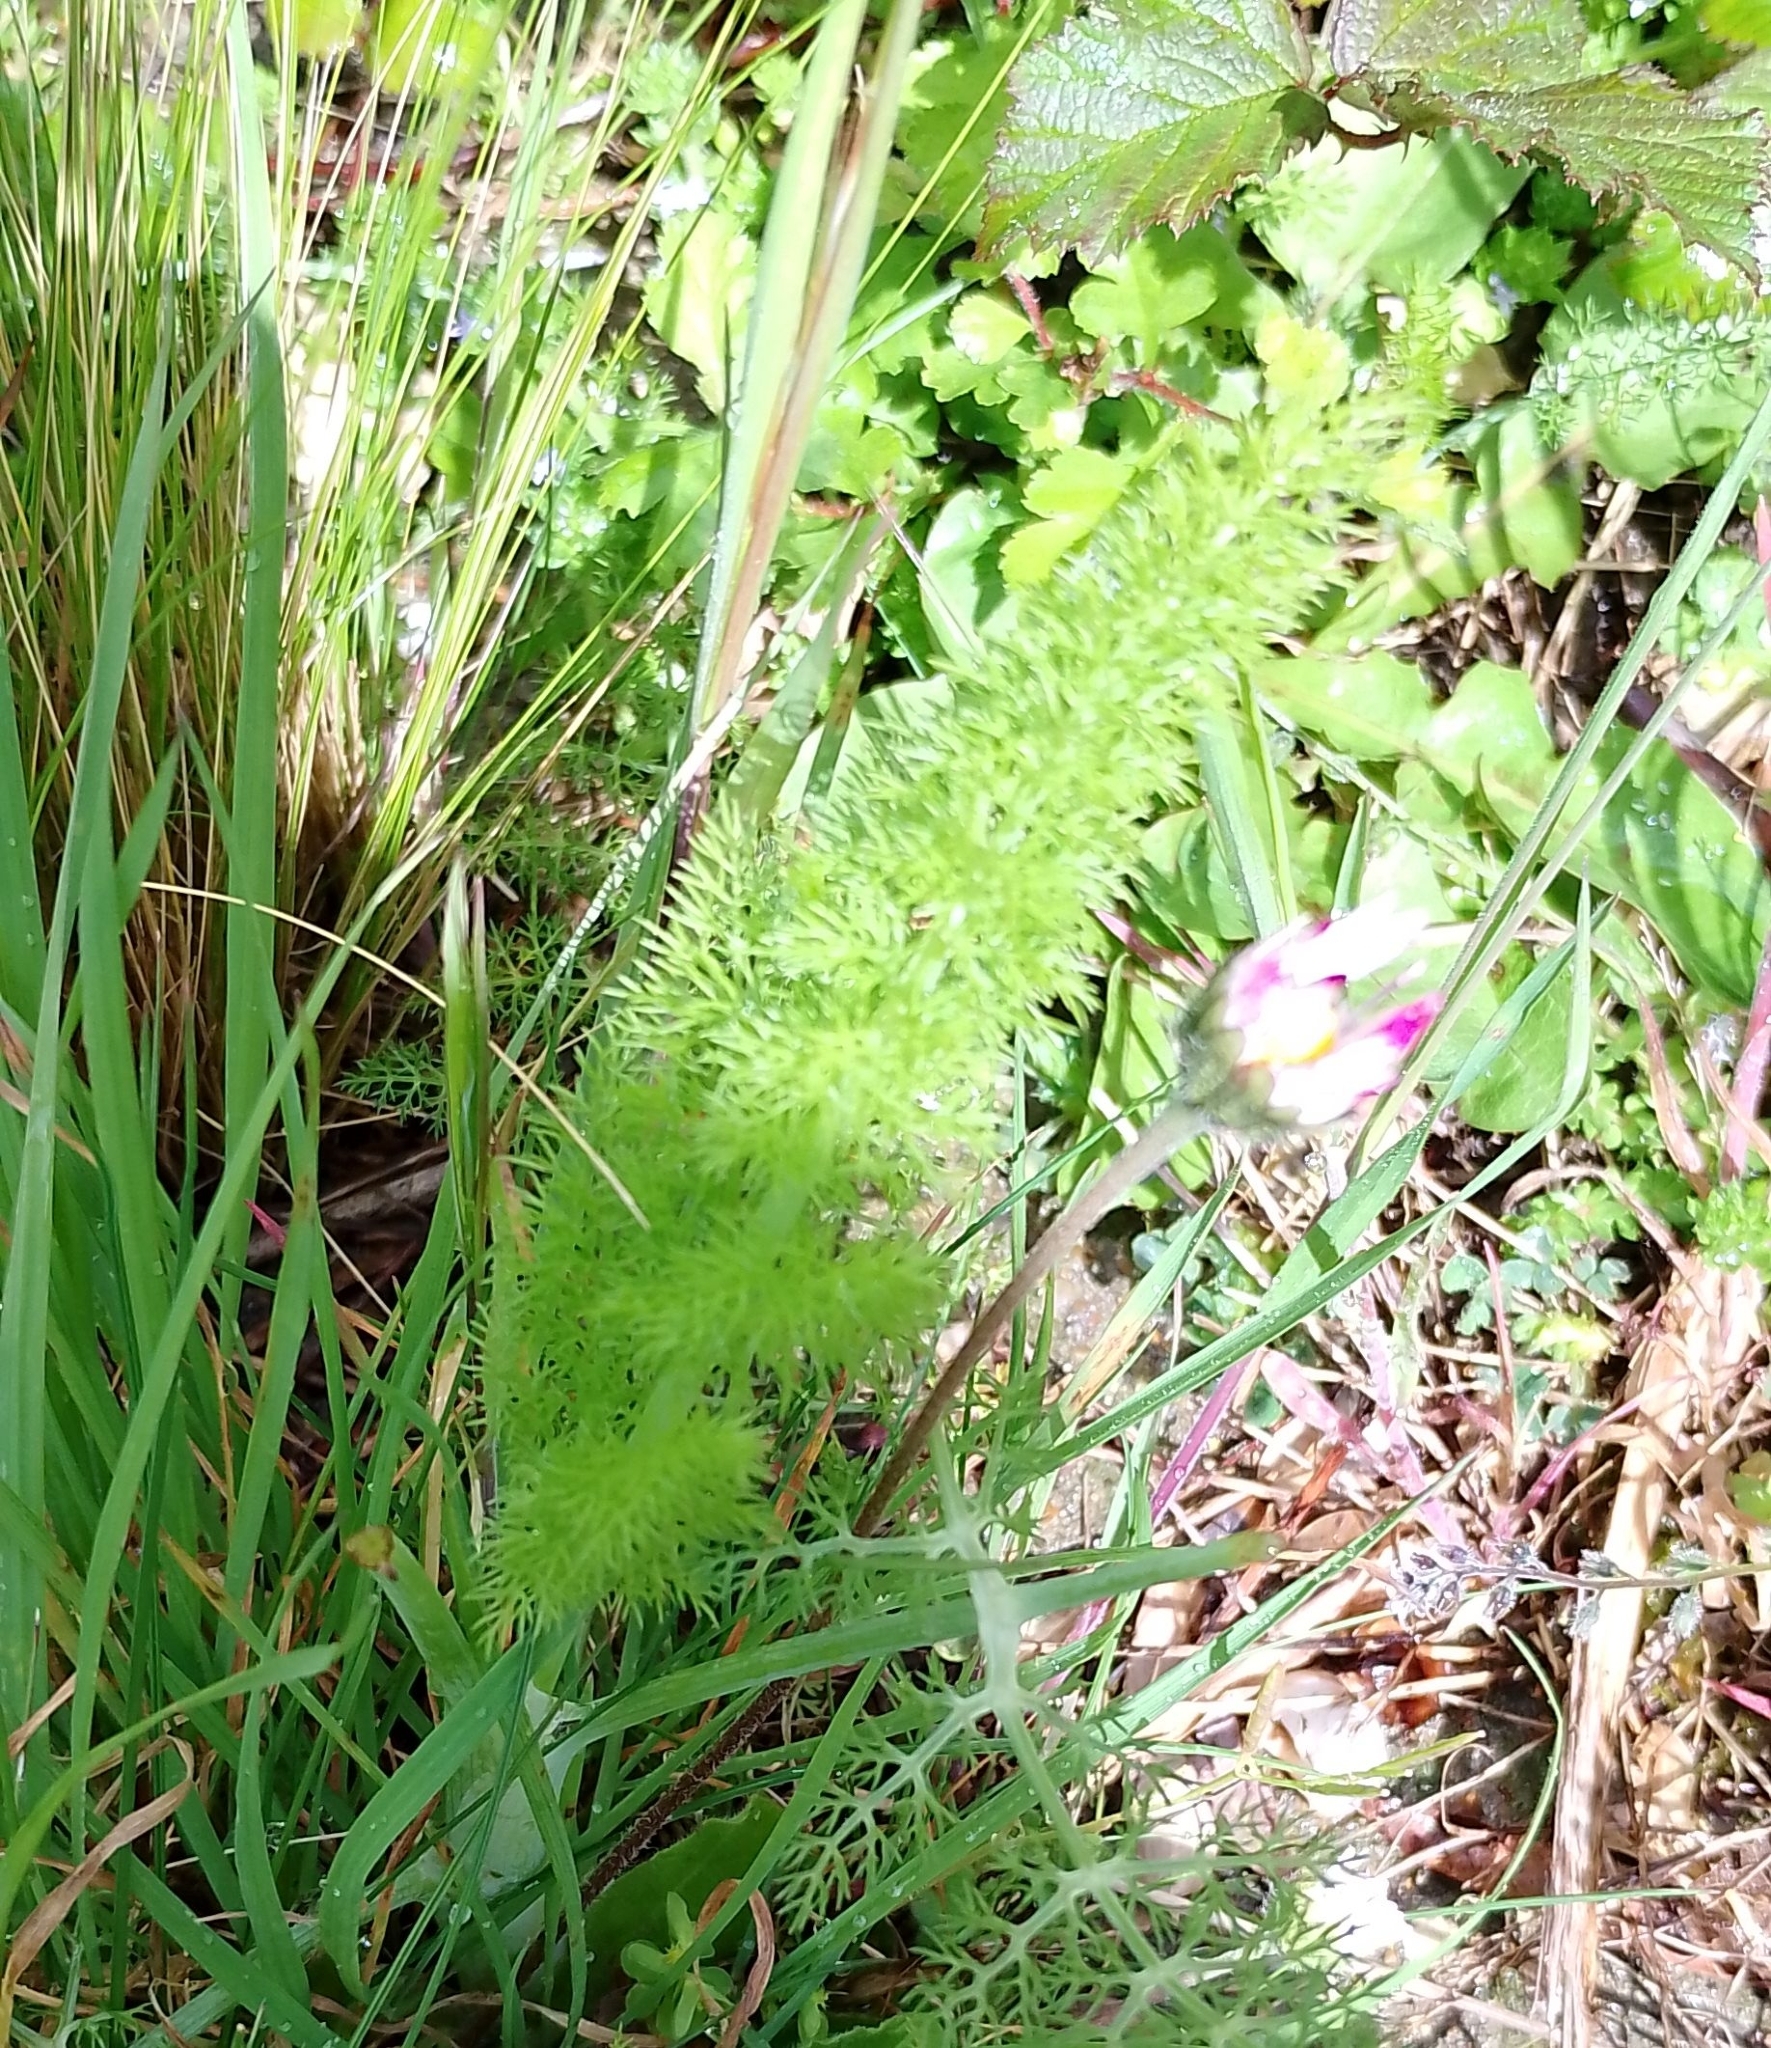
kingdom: Plantae
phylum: Tracheophyta
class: Magnoliopsida
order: Apiales
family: Apiaceae
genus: Foeniculum
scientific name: Foeniculum vulgare
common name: Fennel
